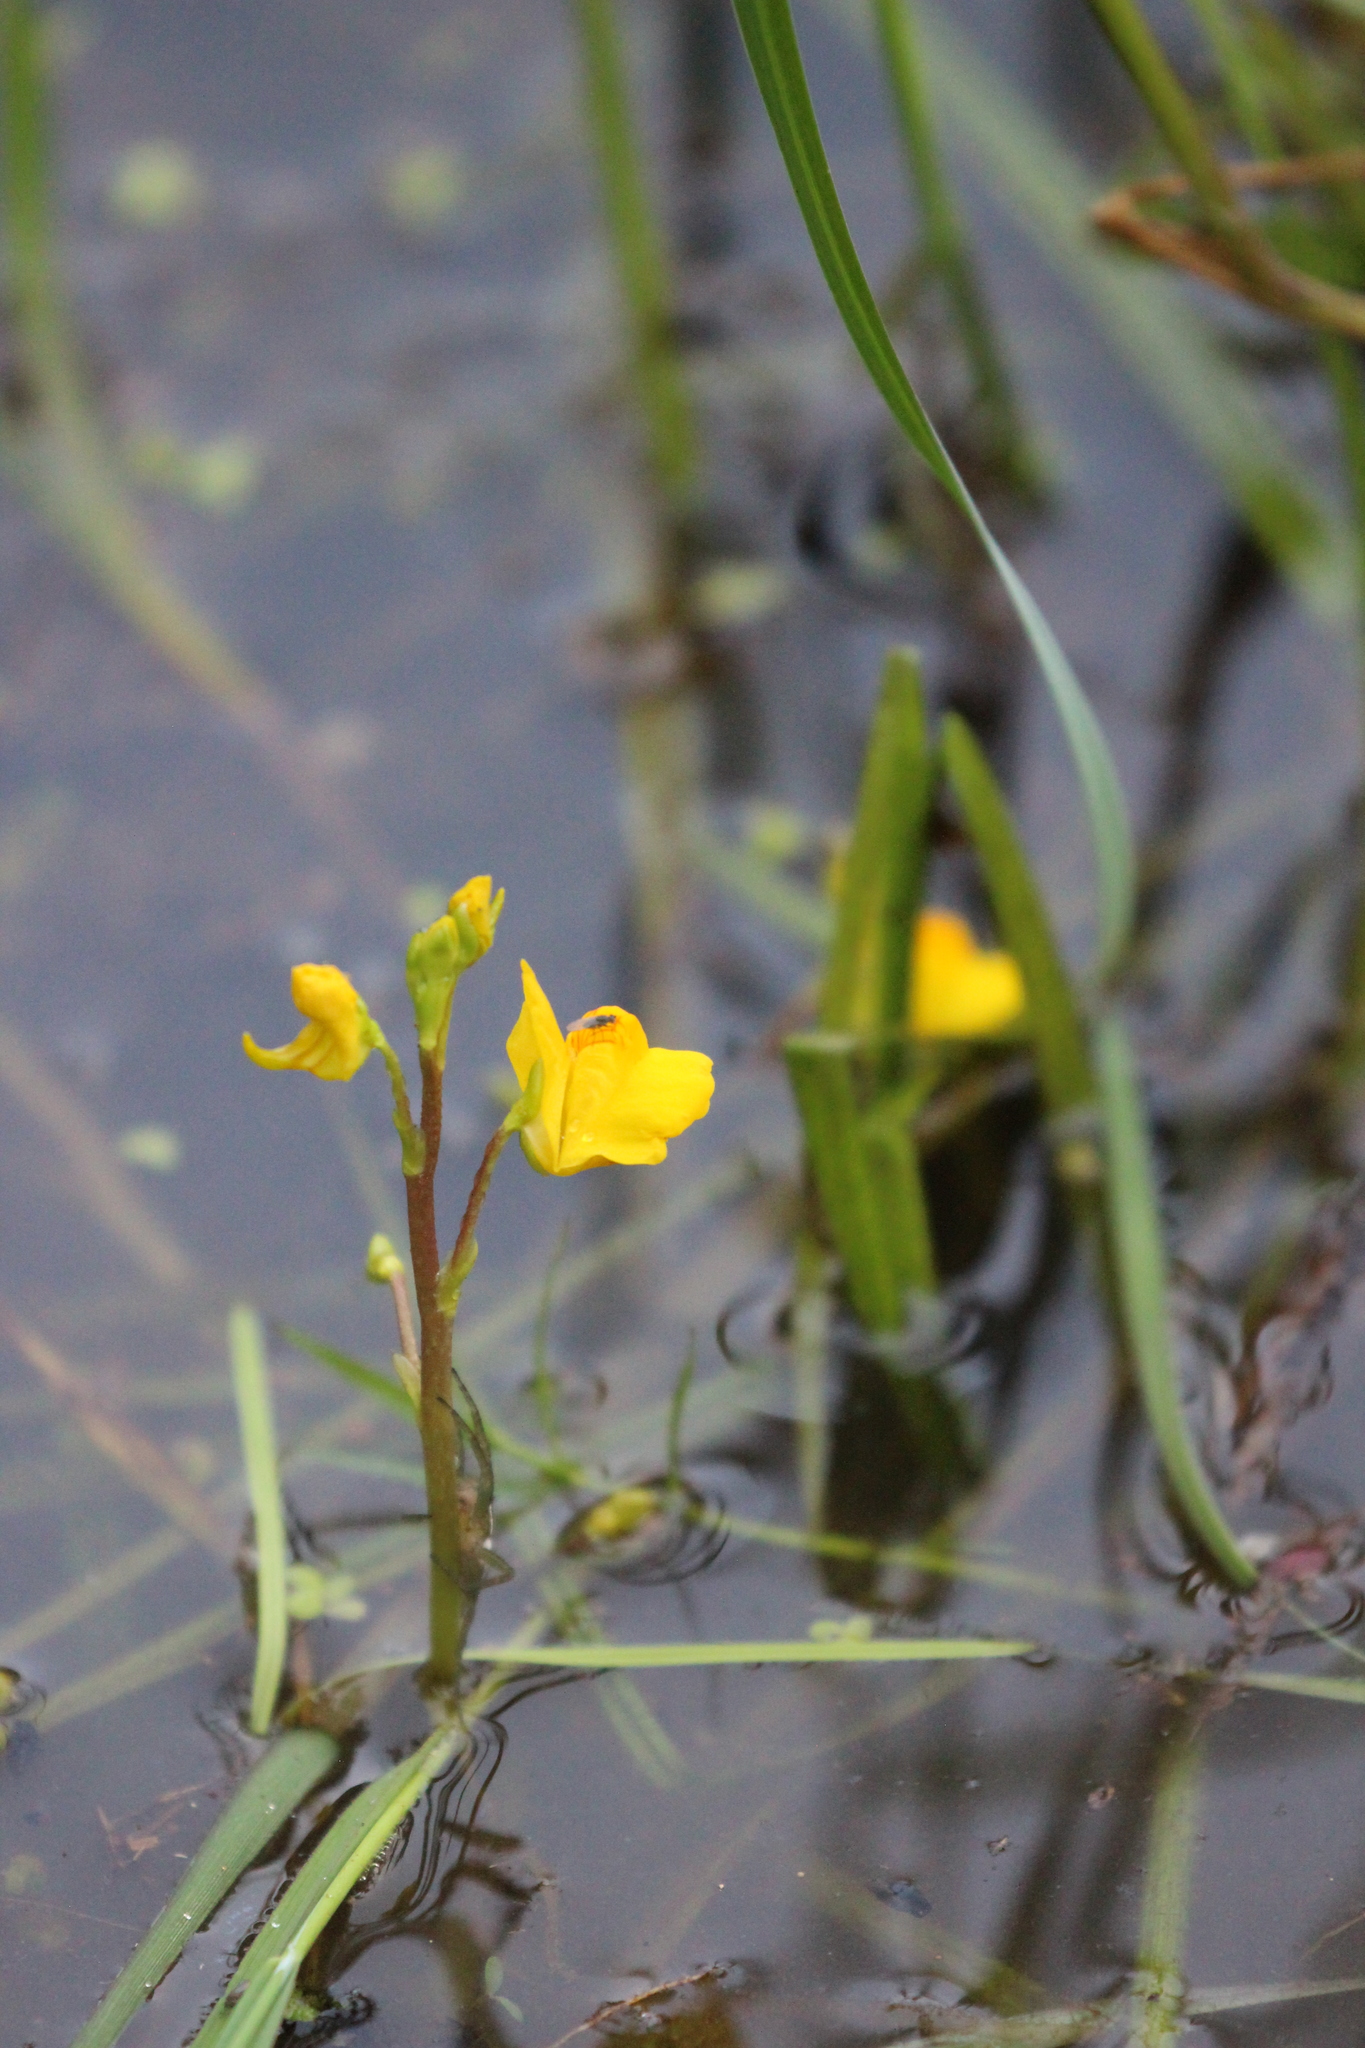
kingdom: Plantae
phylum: Tracheophyta
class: Magnoliopsida
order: Lamiales
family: Lentibulariaceae
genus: Utricularia
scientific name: Utricularia macrorhiza
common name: Common bladderwort
